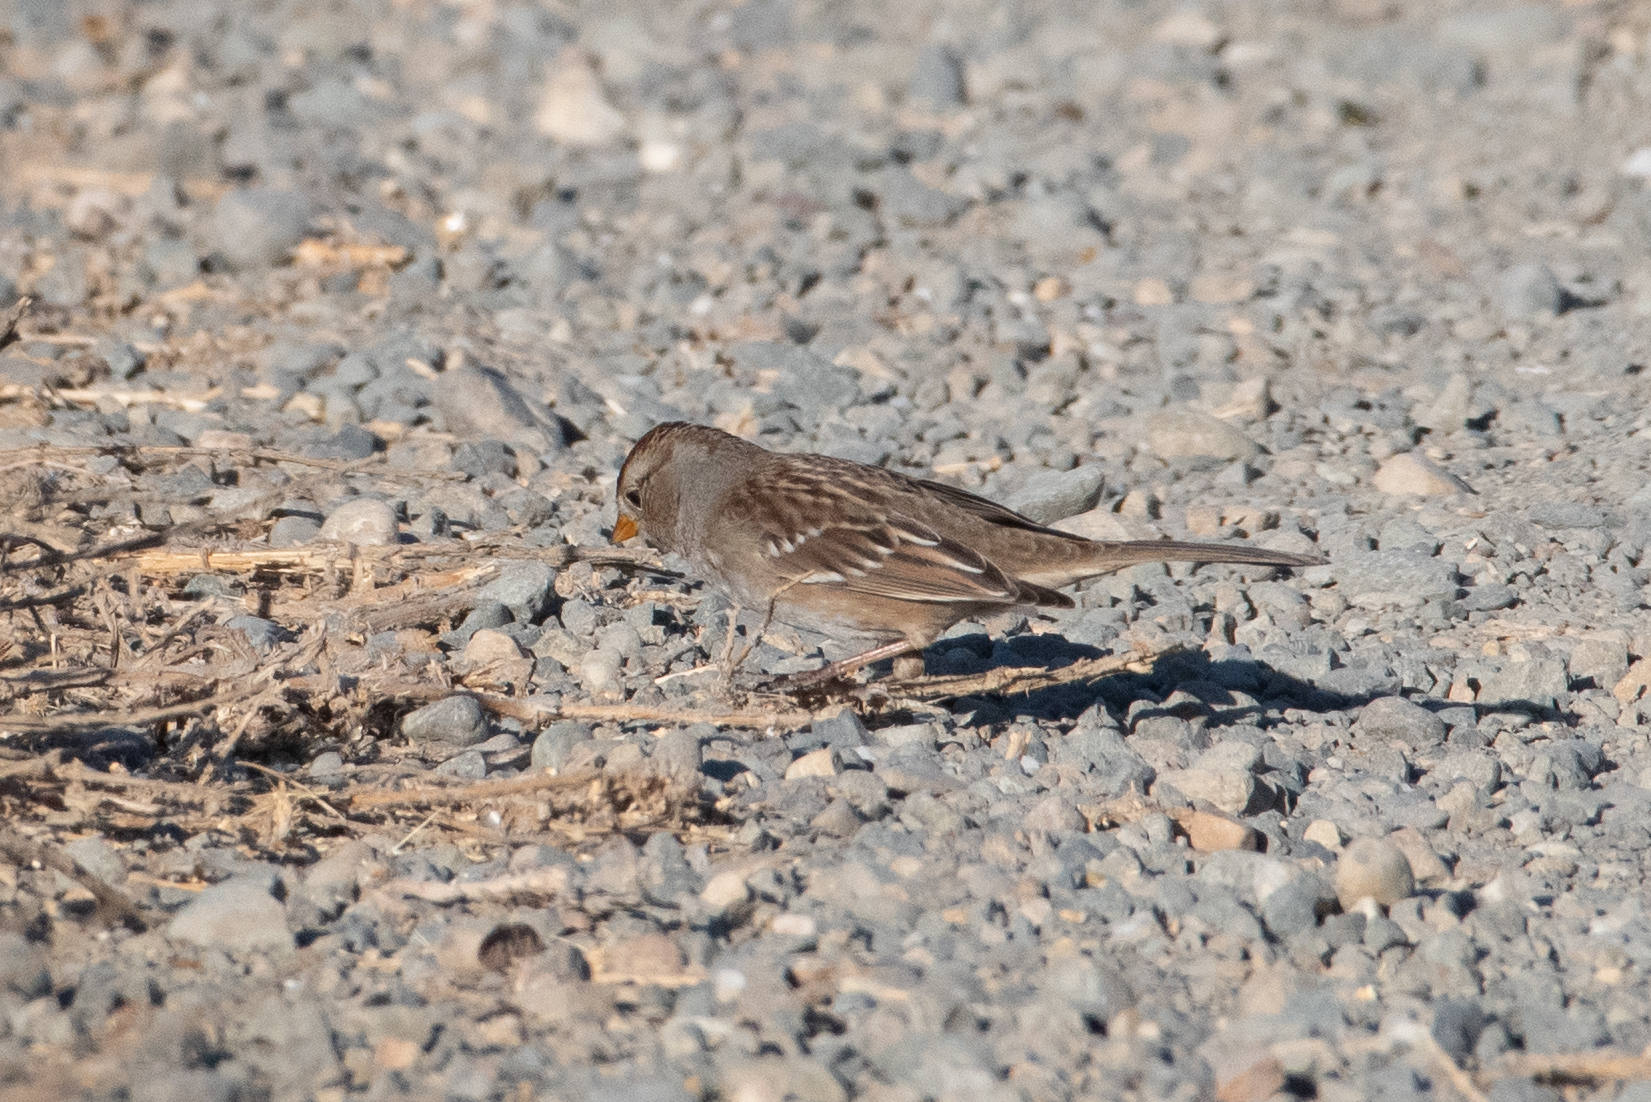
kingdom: Animalia
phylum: Chordata
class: Aves
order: Passeriformes
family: Passerellidae
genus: Zonotrichia
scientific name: Zonotrichia leucophrys
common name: White-crowned sparrow
